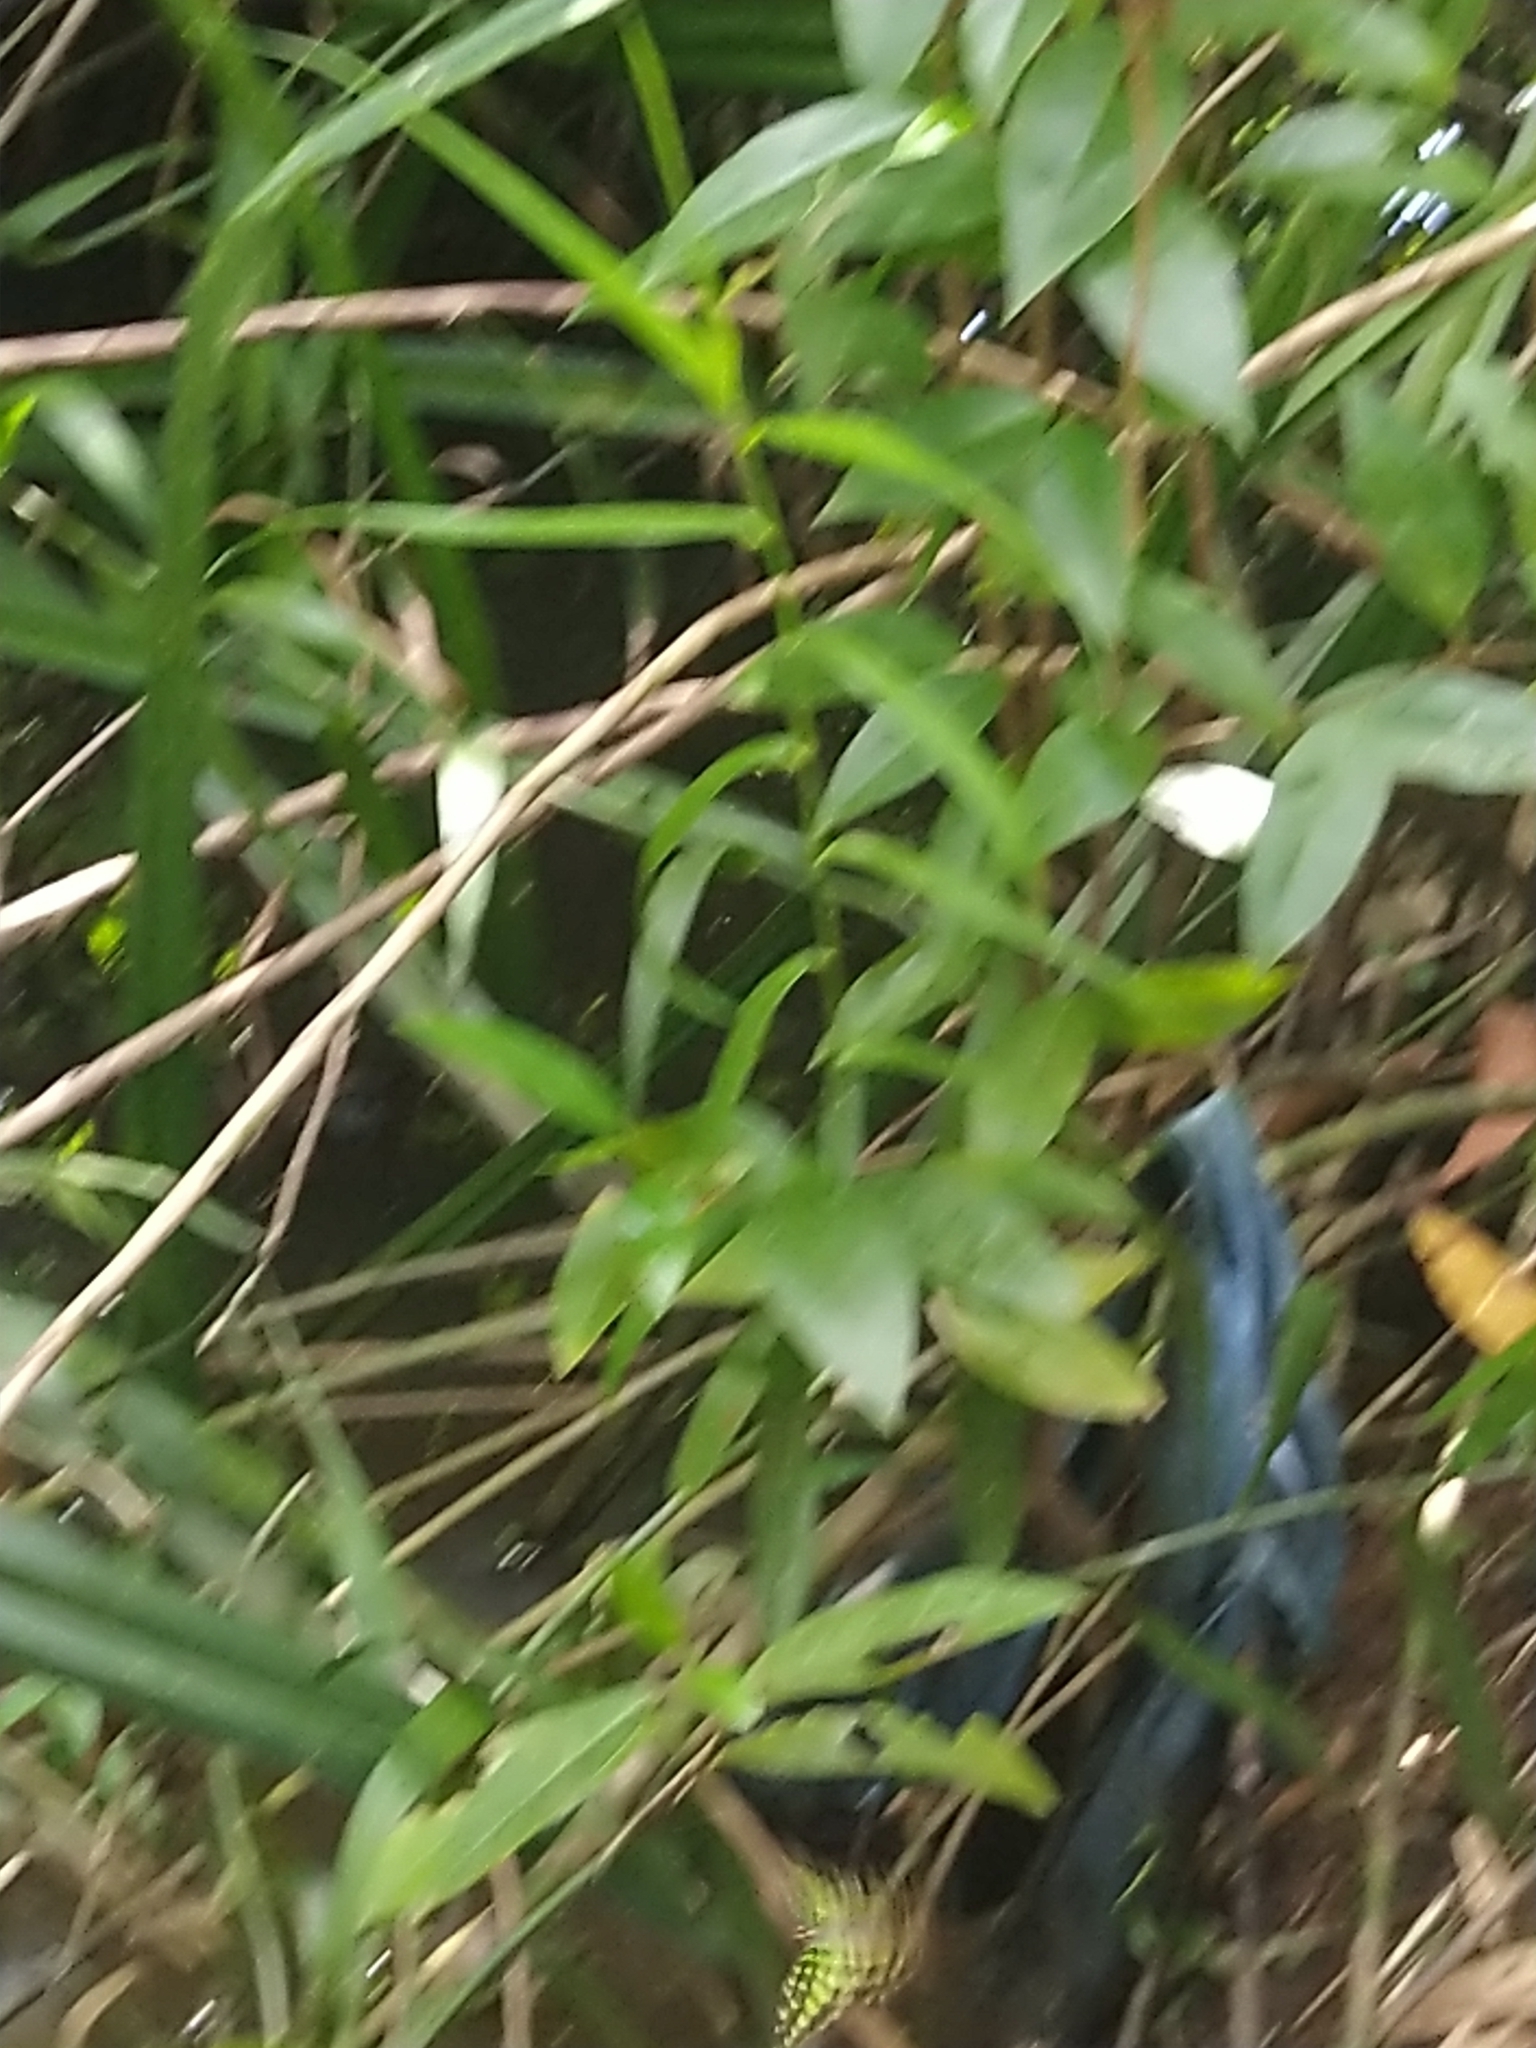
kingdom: Animalia
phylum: Arthropoda
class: Insecta
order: Lepidoptera
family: Papilionidae
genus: Graphium
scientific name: Graphium agamemnon
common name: Tailed jay
